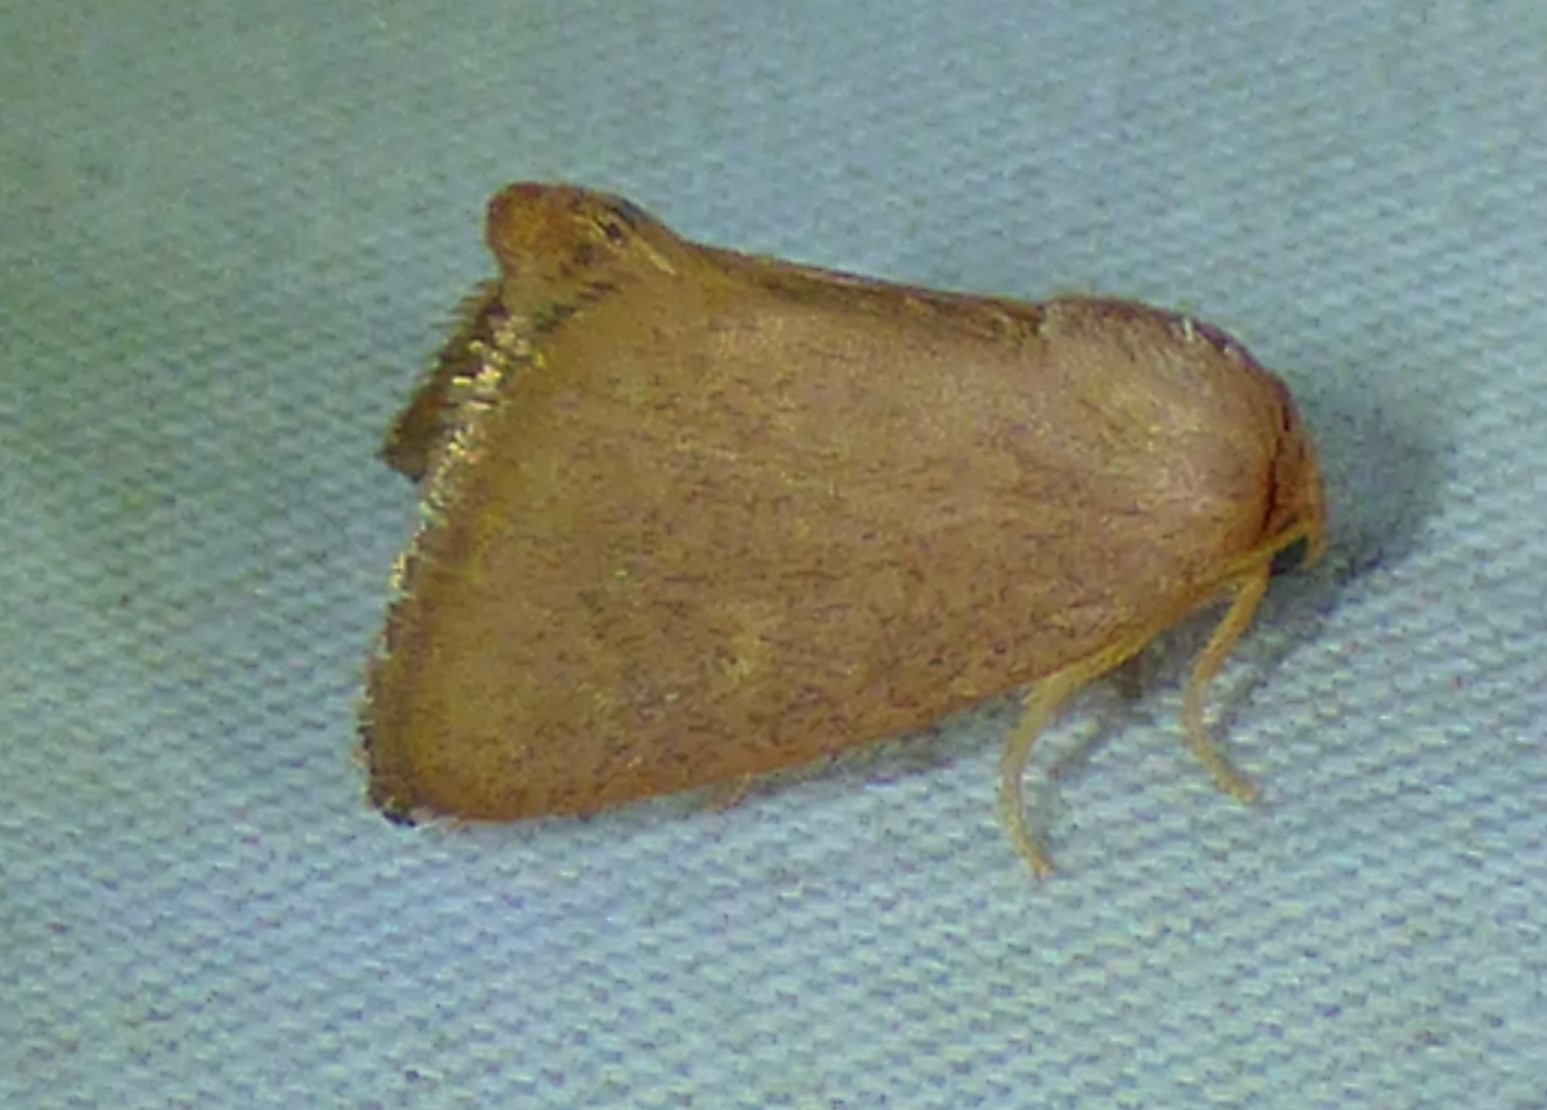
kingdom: Animalia
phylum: Arthropoda
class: Insecta
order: Lepidoptera
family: Limacodidae
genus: Tortricidia
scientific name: Tortricidia pallida
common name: Red-crossed button slug moth
